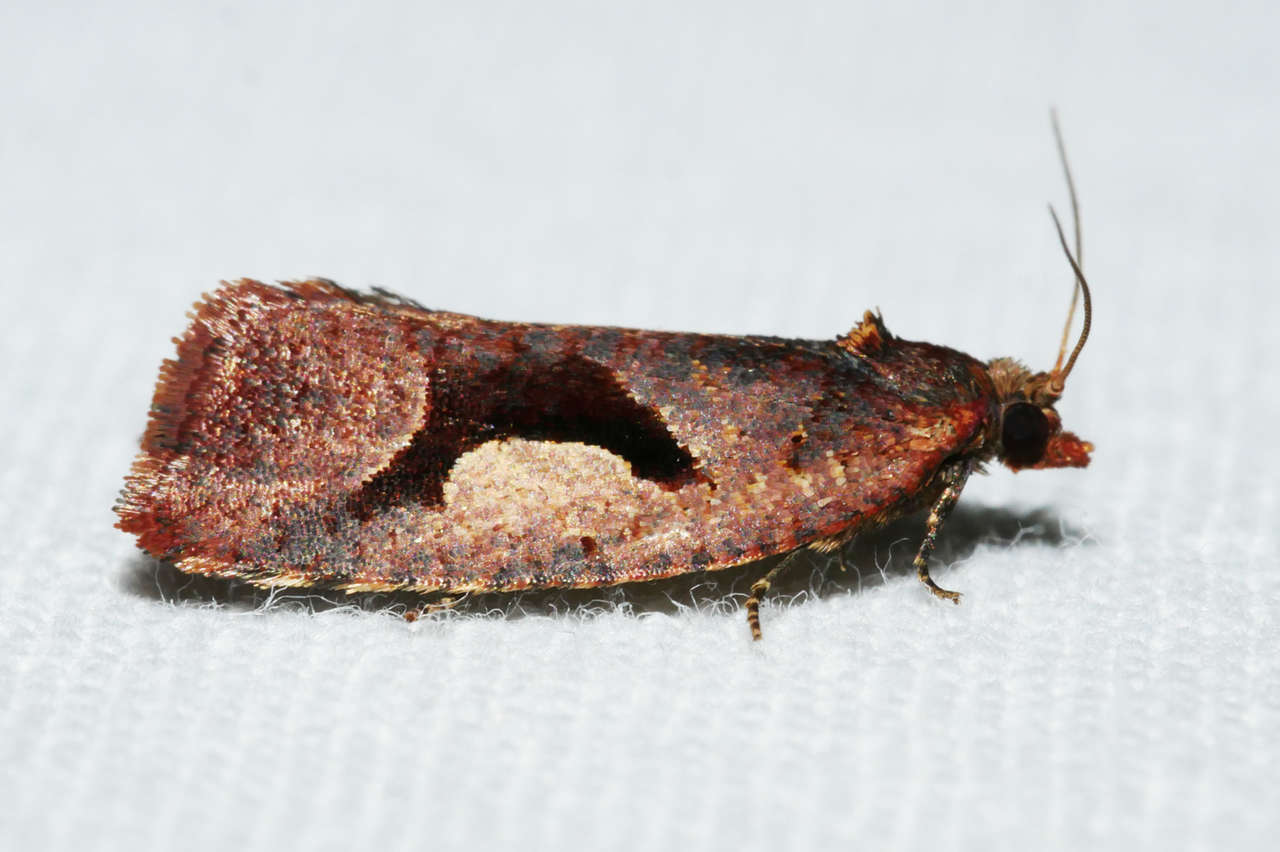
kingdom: Animalia
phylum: Arthropoda
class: Insecta
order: Lepidoptera
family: Tortricidae
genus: Epitymbia
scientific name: Epitymbia scotinopa
